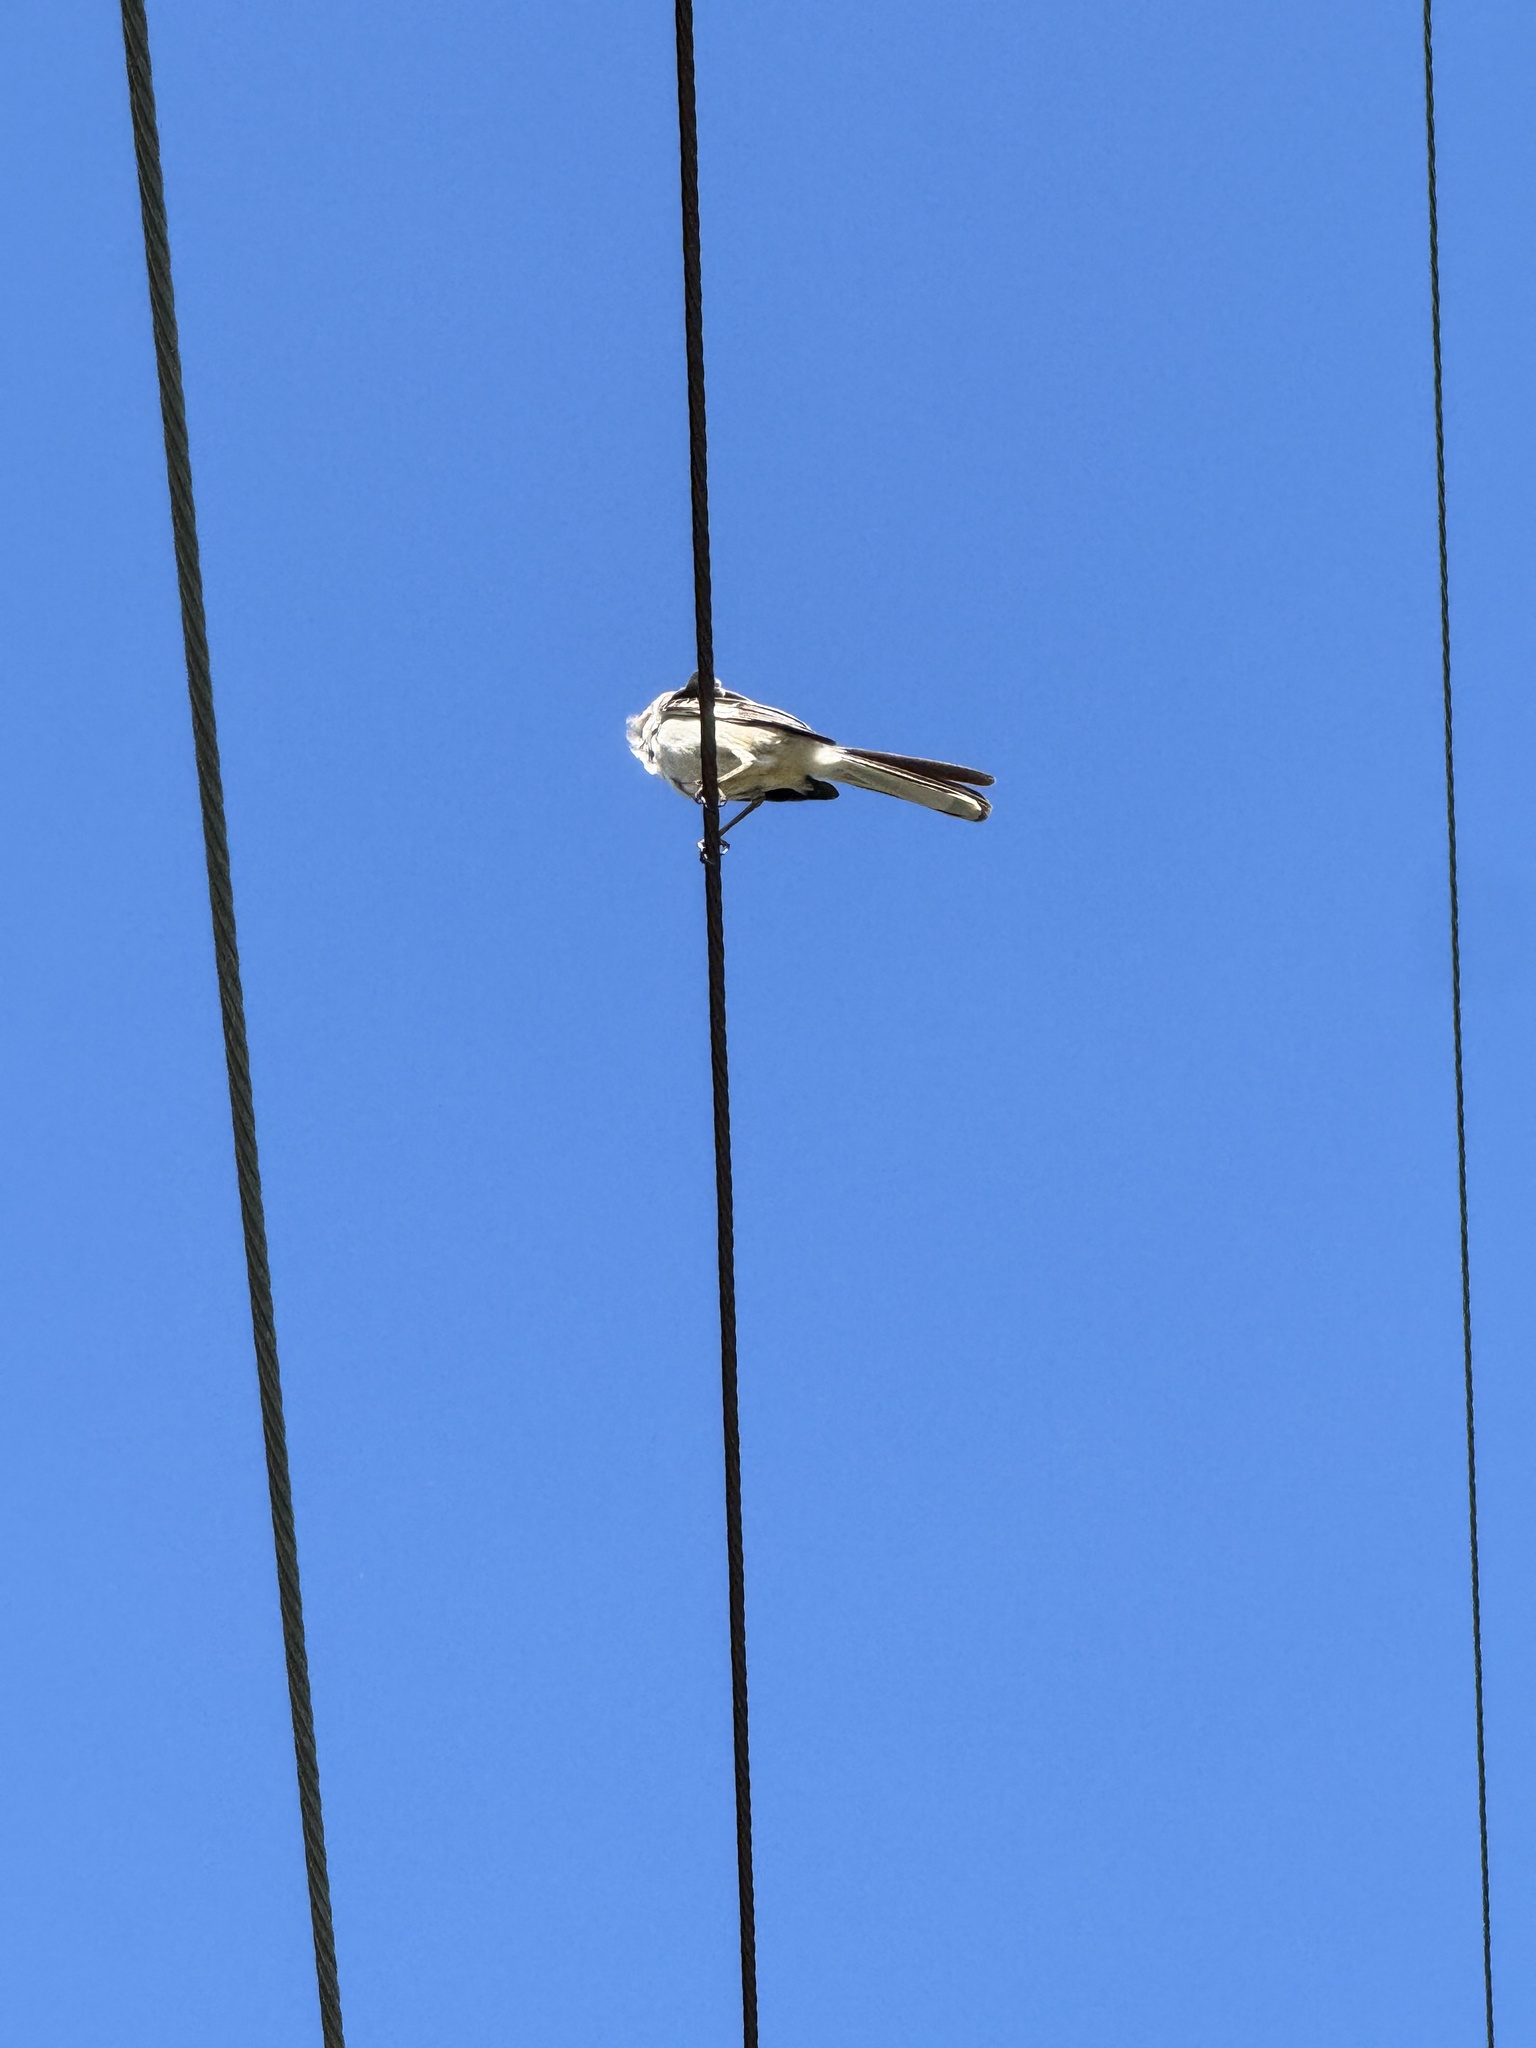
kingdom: Animalia
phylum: Chordata
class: Aves
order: Passeriformes
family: Mimidae
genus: Mimus
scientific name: Mimus polyglottos
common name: Northern mockingbird
